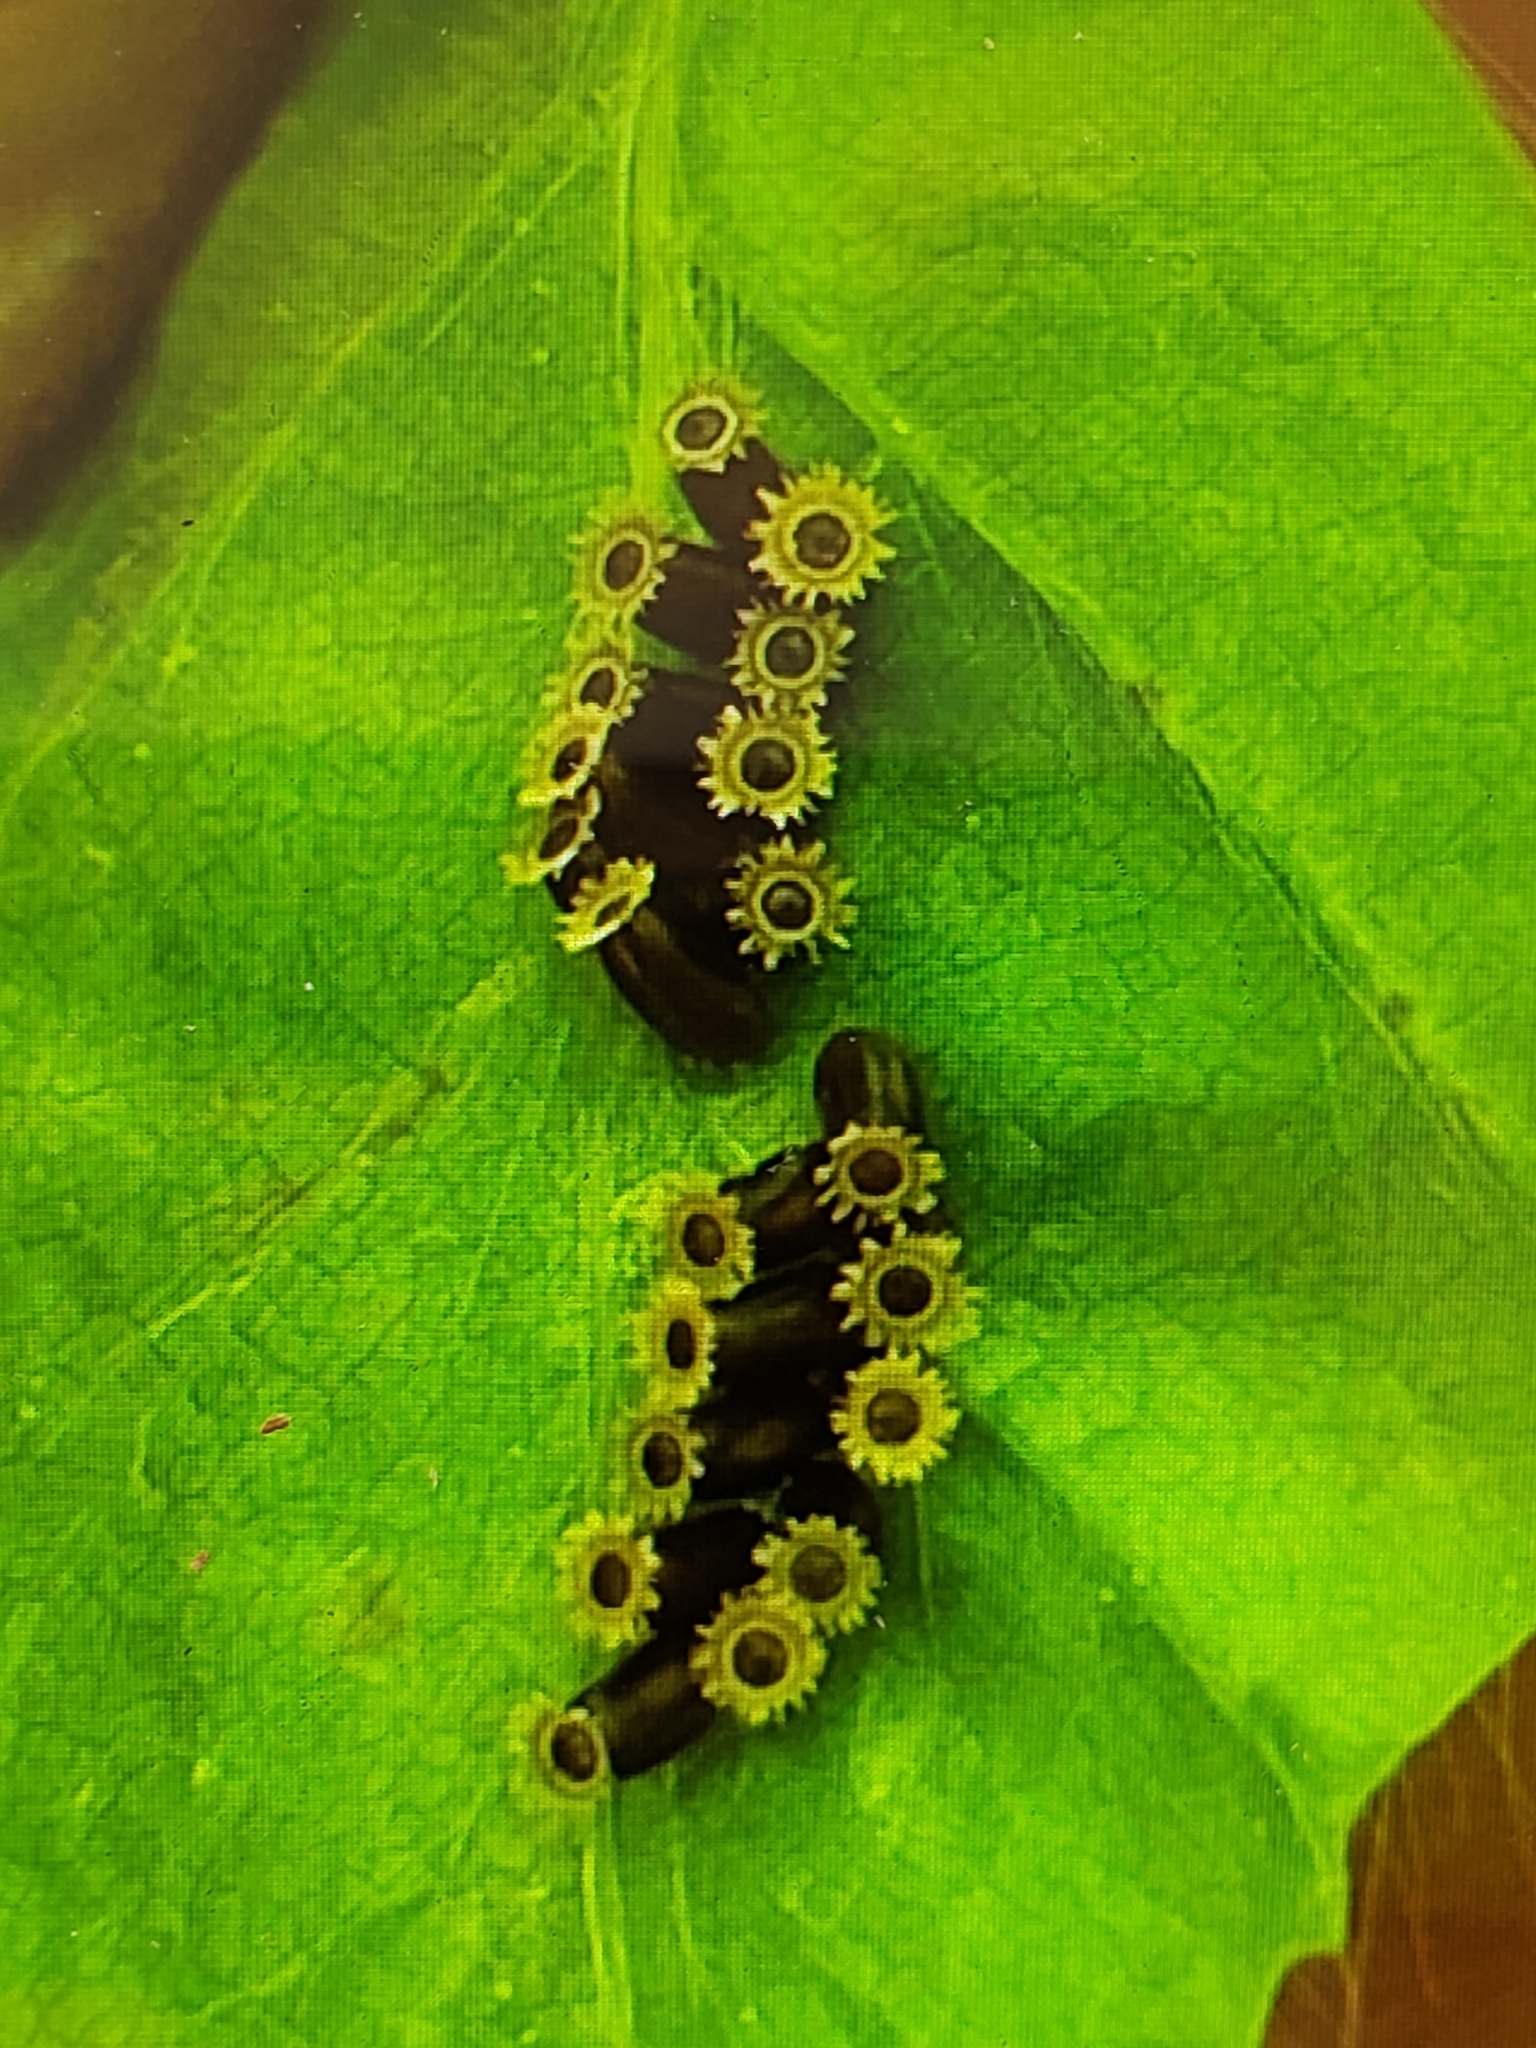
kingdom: Animalia
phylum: Arthropoda
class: Insecta
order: Hemiptera
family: Reduviidae
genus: Sinea
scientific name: Sinea spinipes
